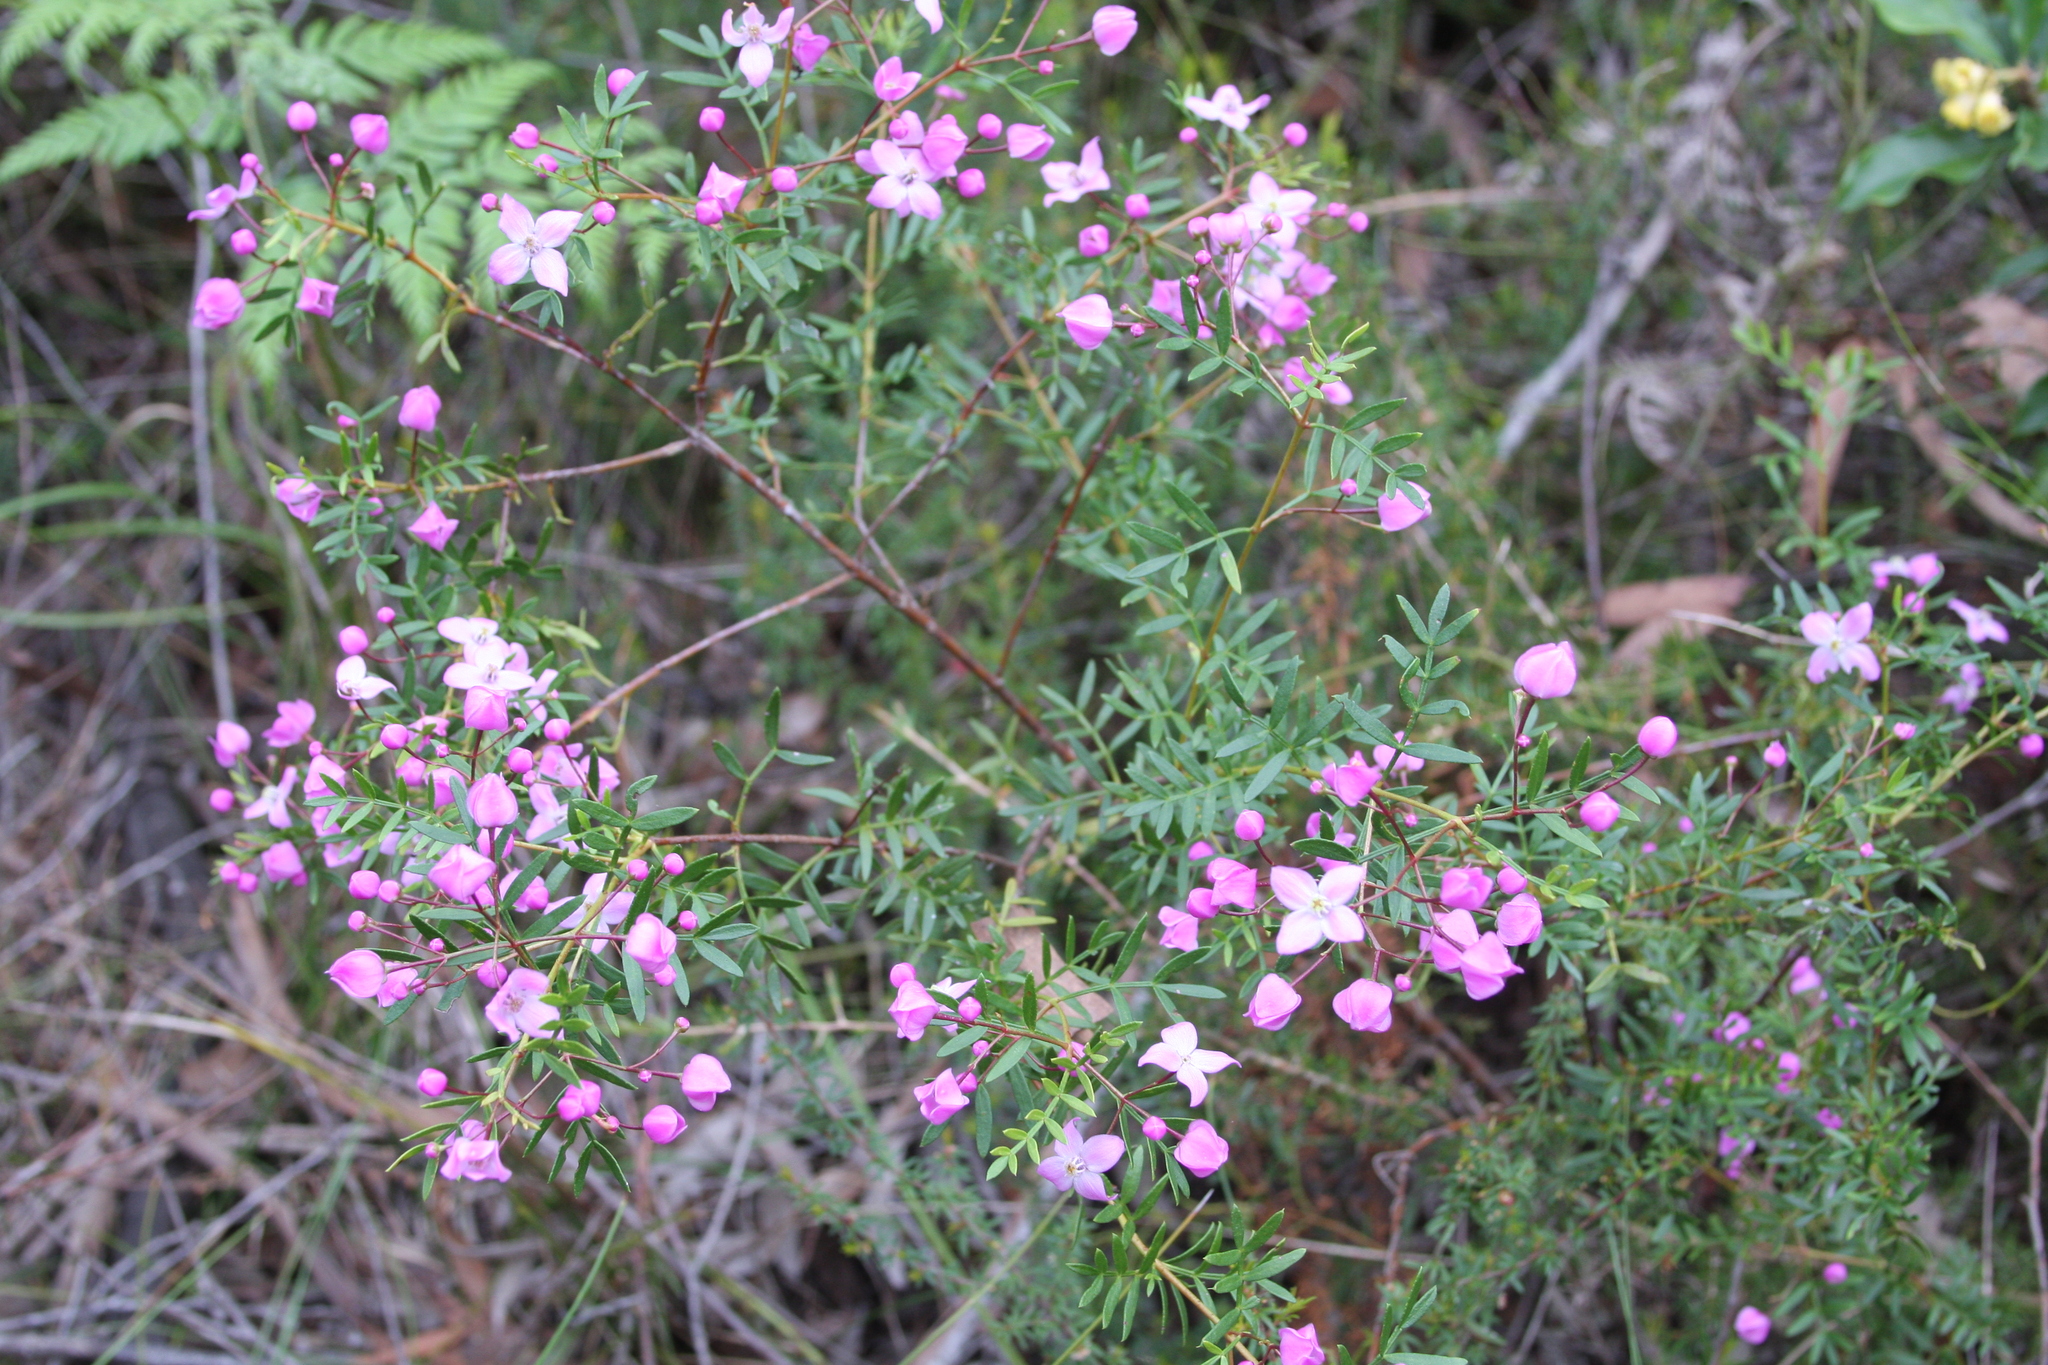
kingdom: Plantae
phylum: Tracheophyta
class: Magnoliopsida
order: Sapindales
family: Rutaceae
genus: Boronia
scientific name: Boronia pinnata
